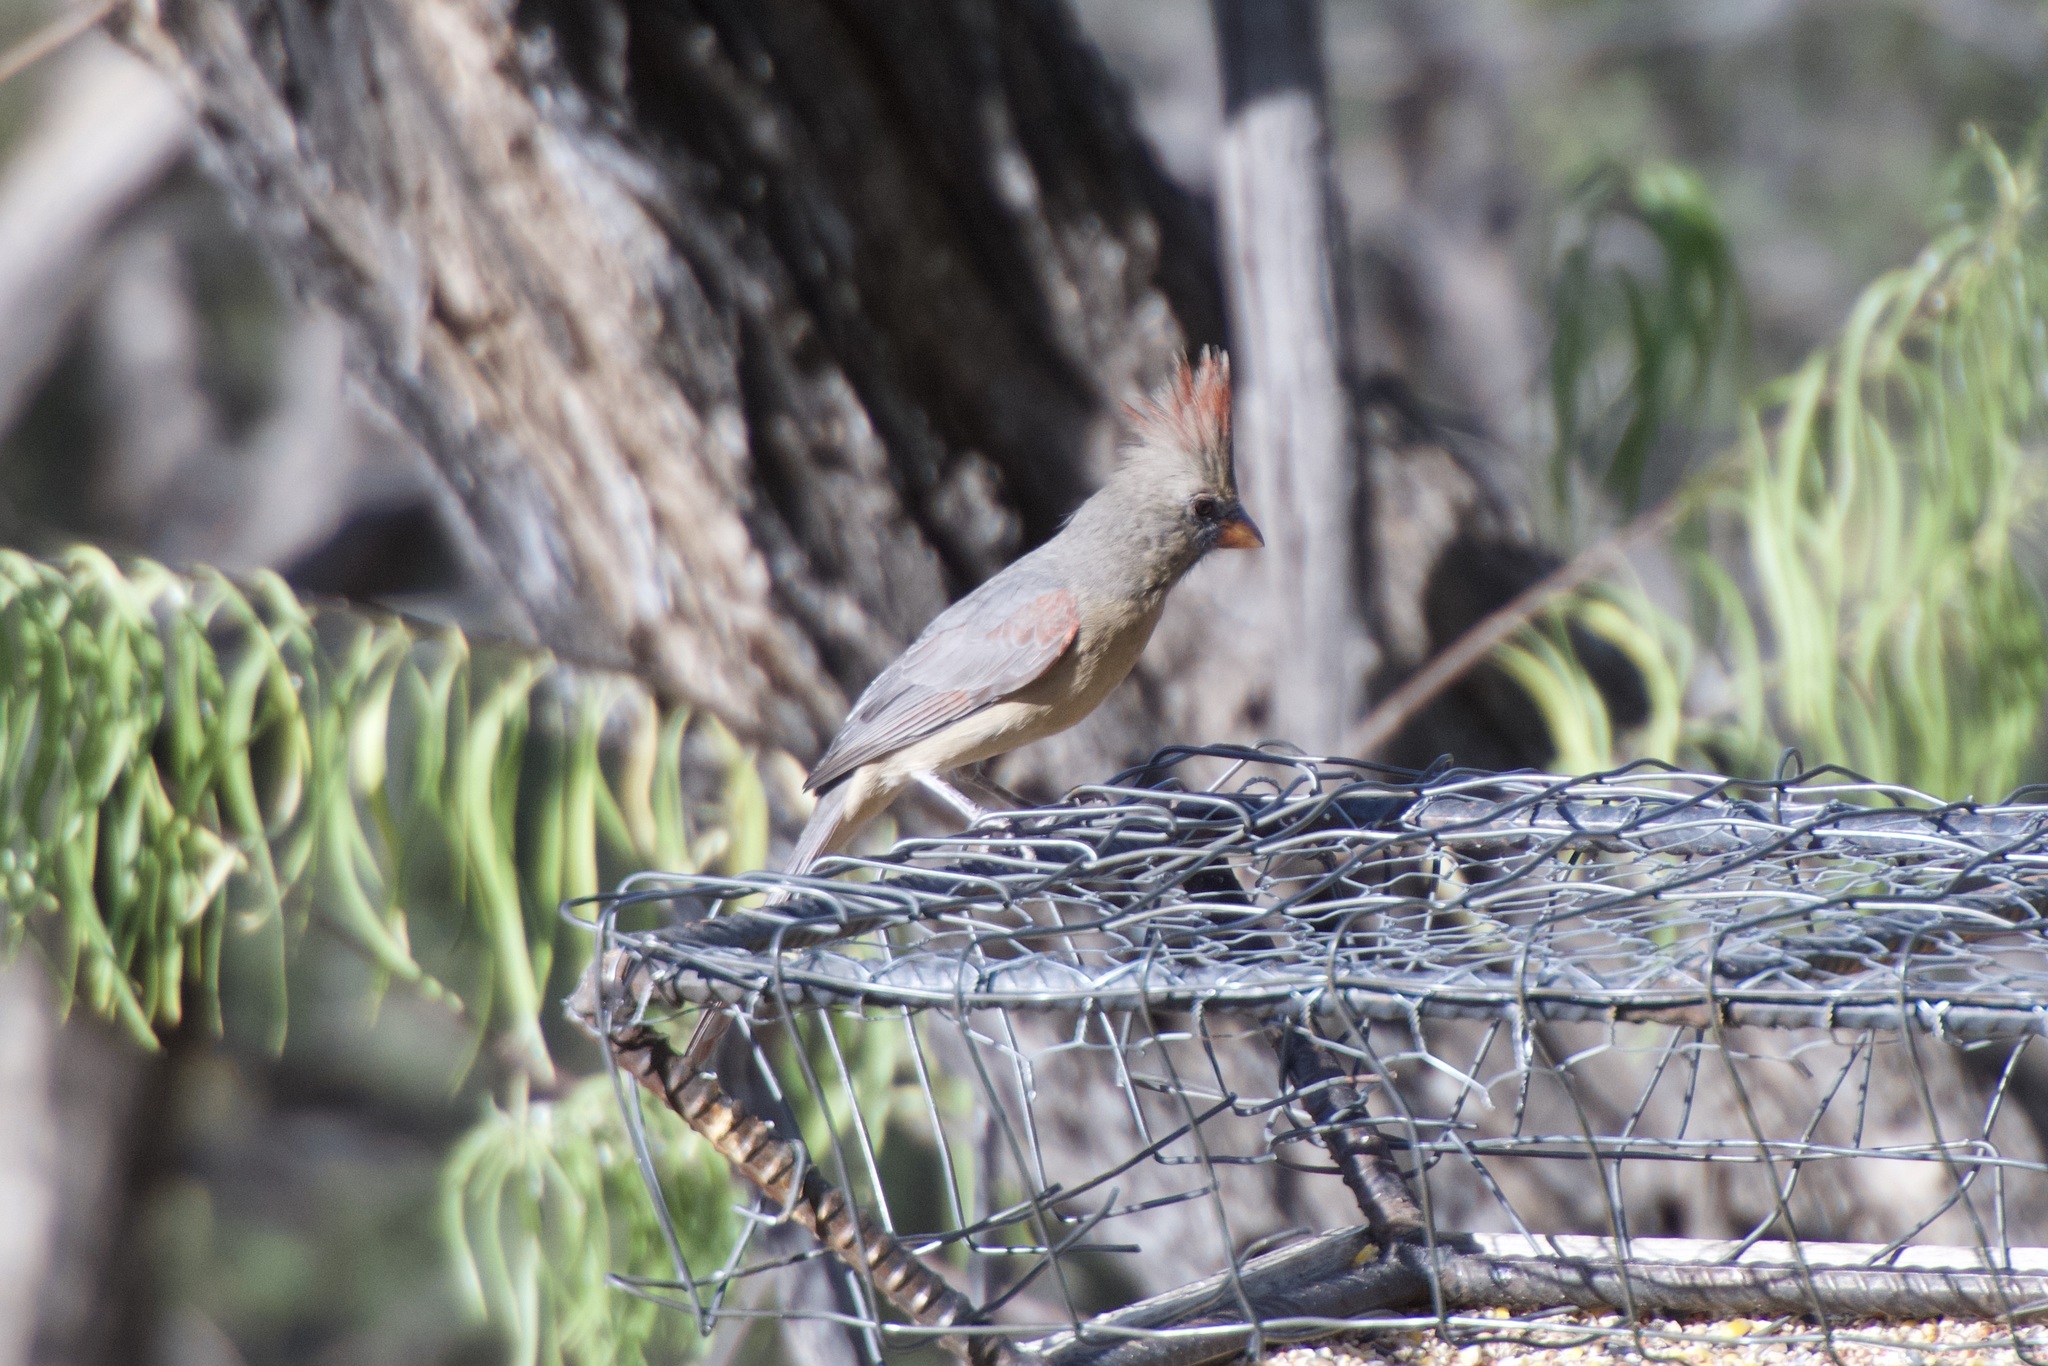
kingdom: Animalia
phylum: Chordata
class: Aves
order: Passeriformes
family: Cardinalidae
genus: Cardinalis
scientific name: Cardinalis cardinalis
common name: Northern cardinal
